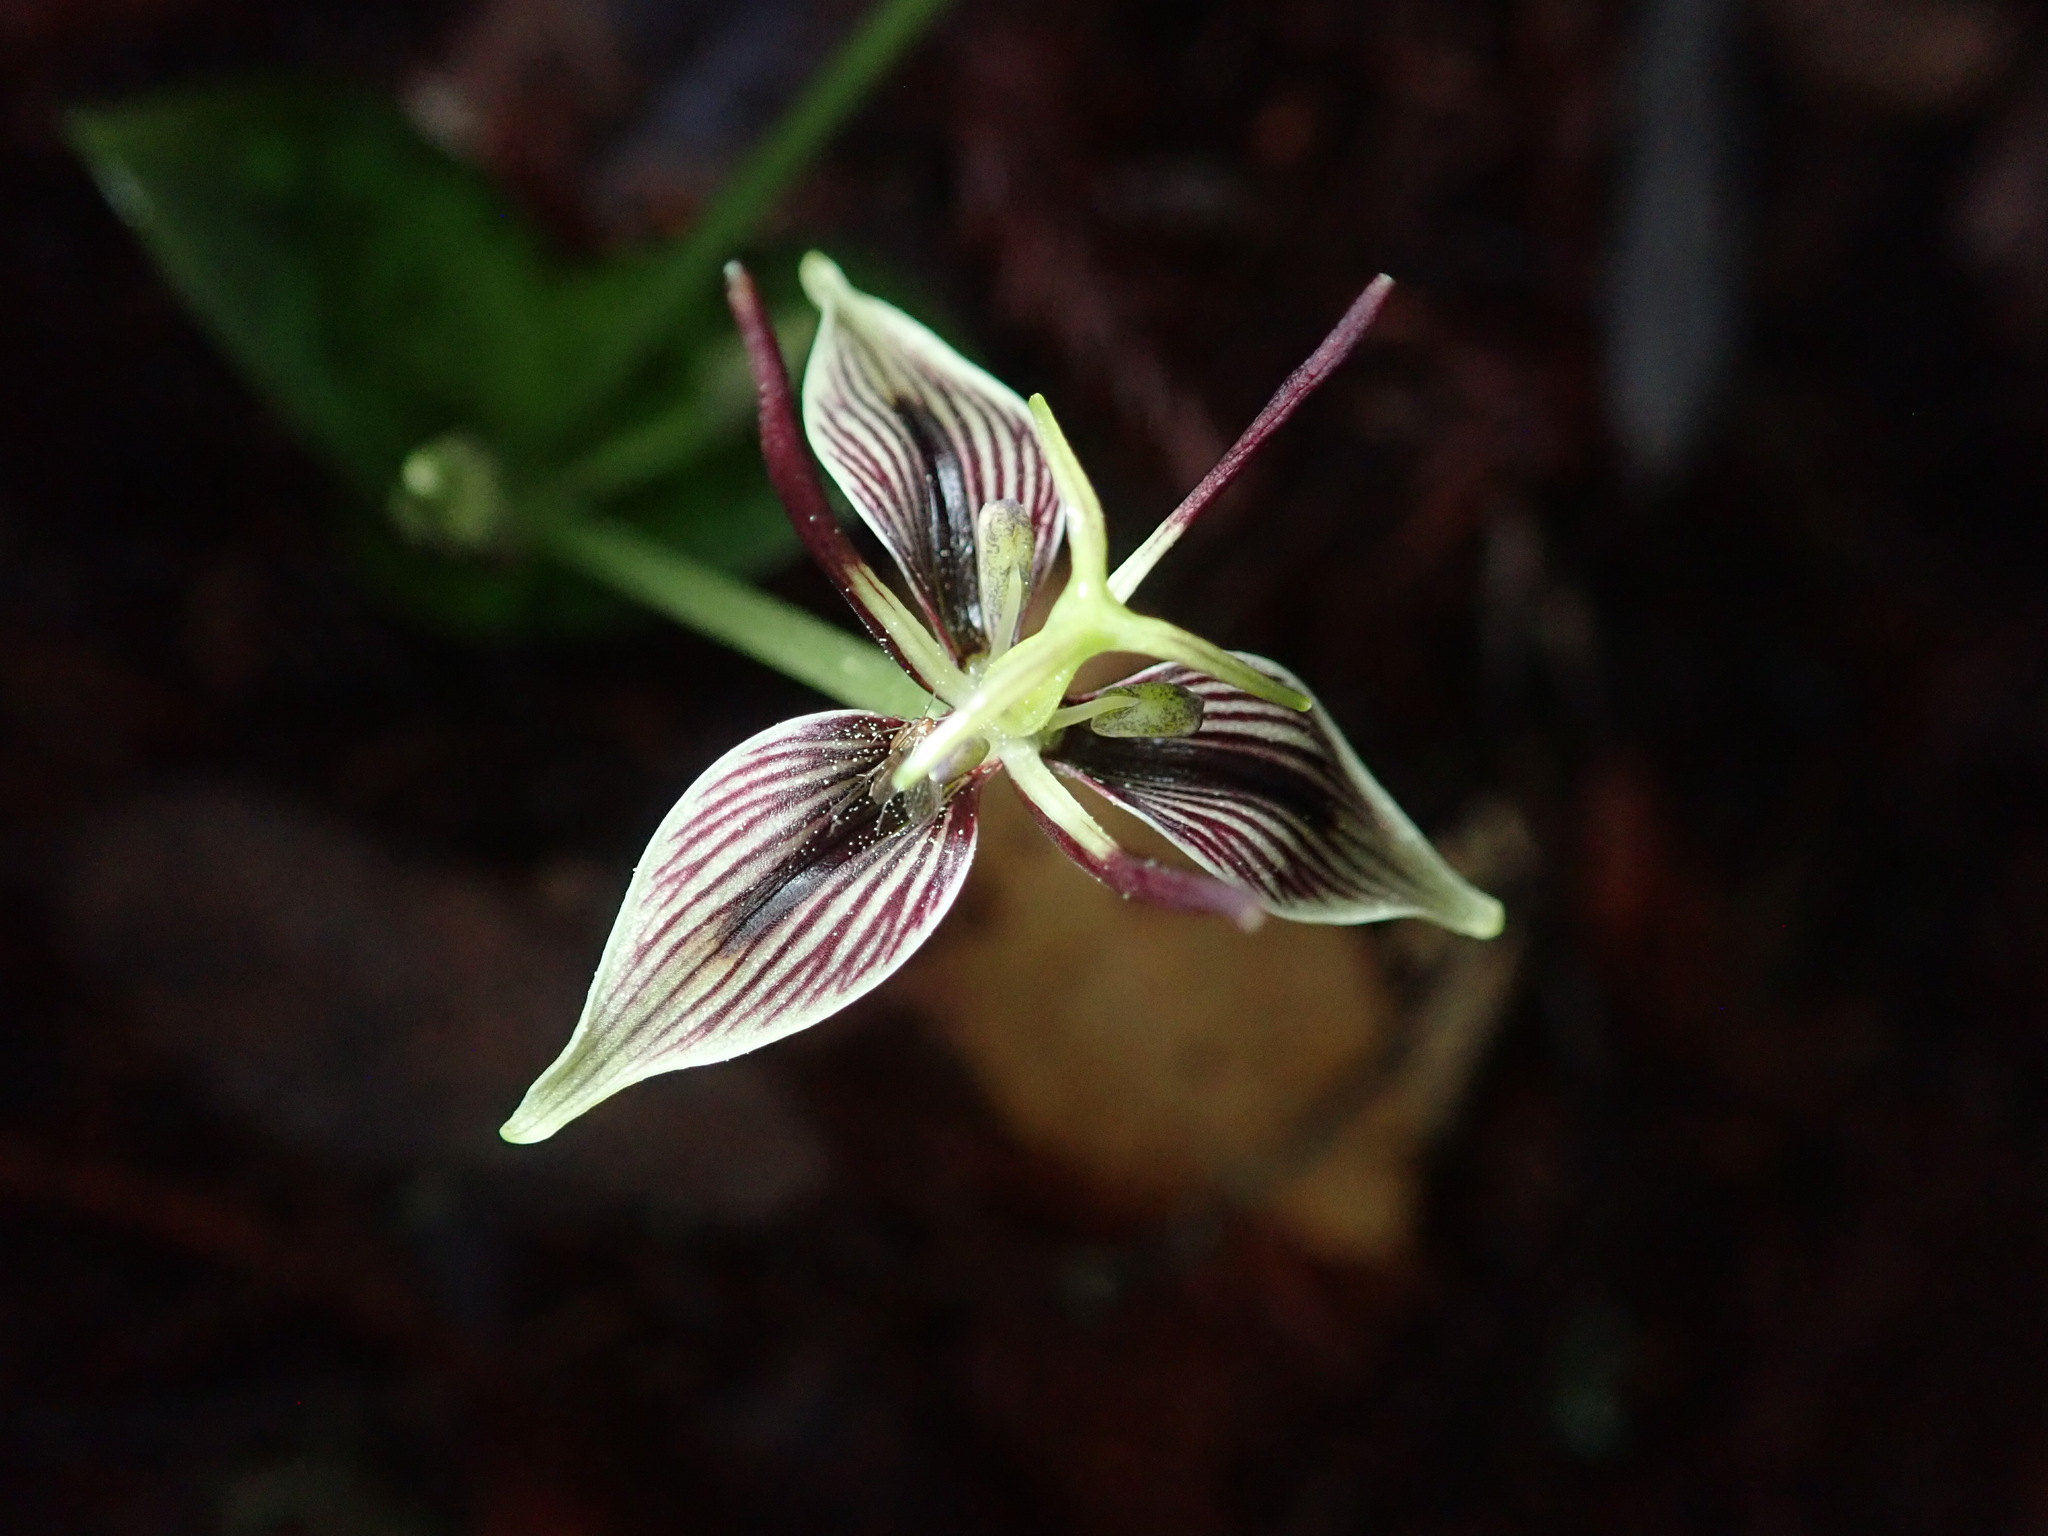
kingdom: Plantae
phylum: Tracheophyta
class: Liliopsida
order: Liliales
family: Liliaceae
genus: Scoliopus
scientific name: Scoliopus bigelovii
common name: Foetid adder's-tongue
